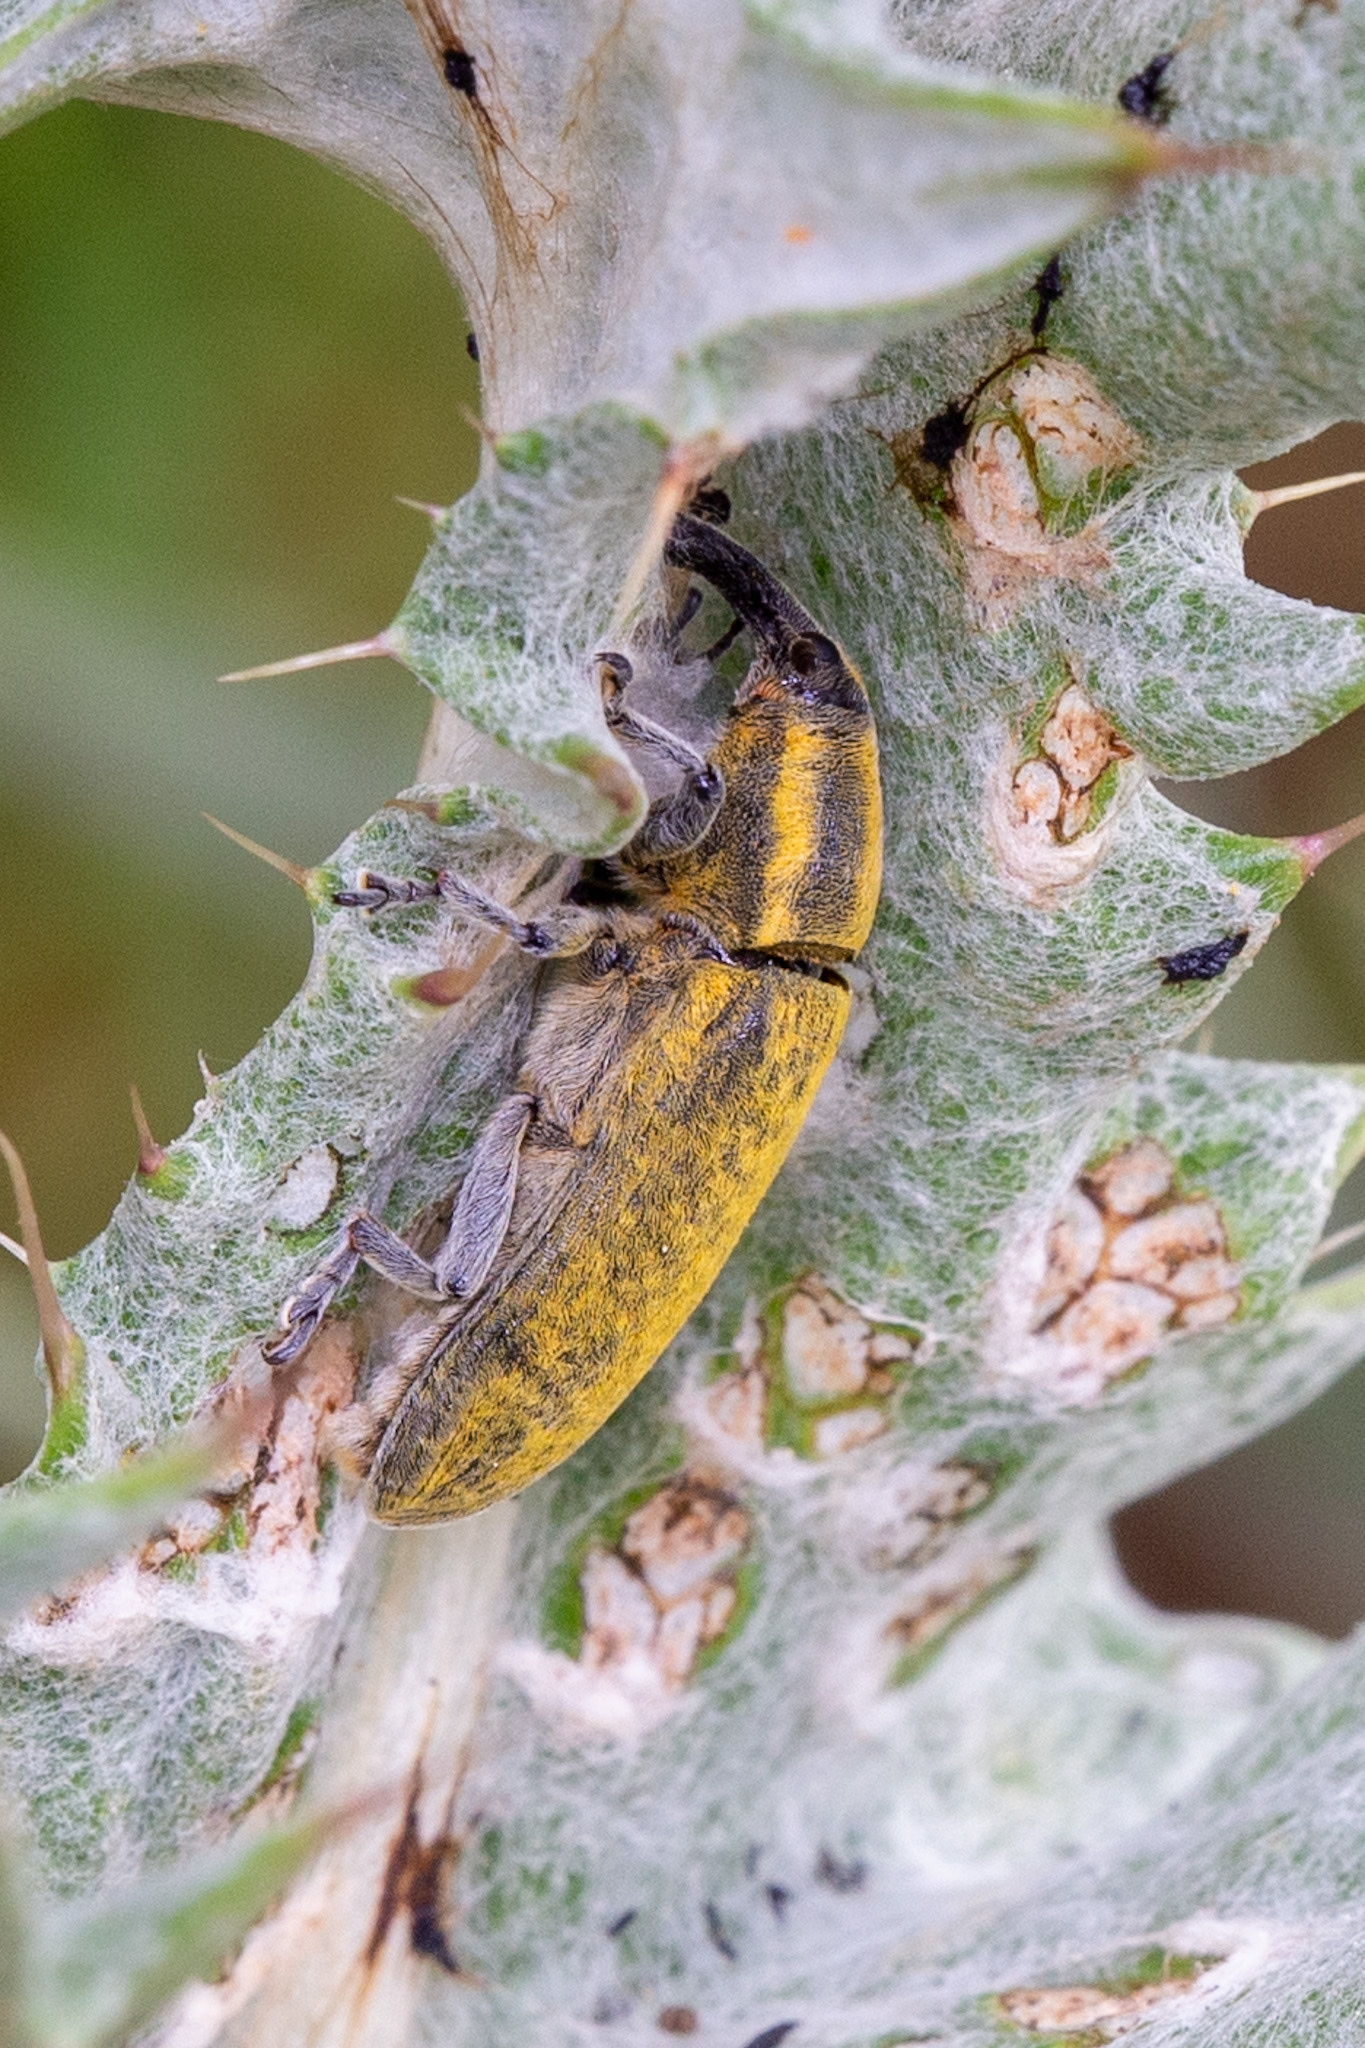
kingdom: Animalia
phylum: Arthropoda
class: Insecta
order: Coleoptera
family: Curculionidae
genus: Lixus
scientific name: Lixus cardui
